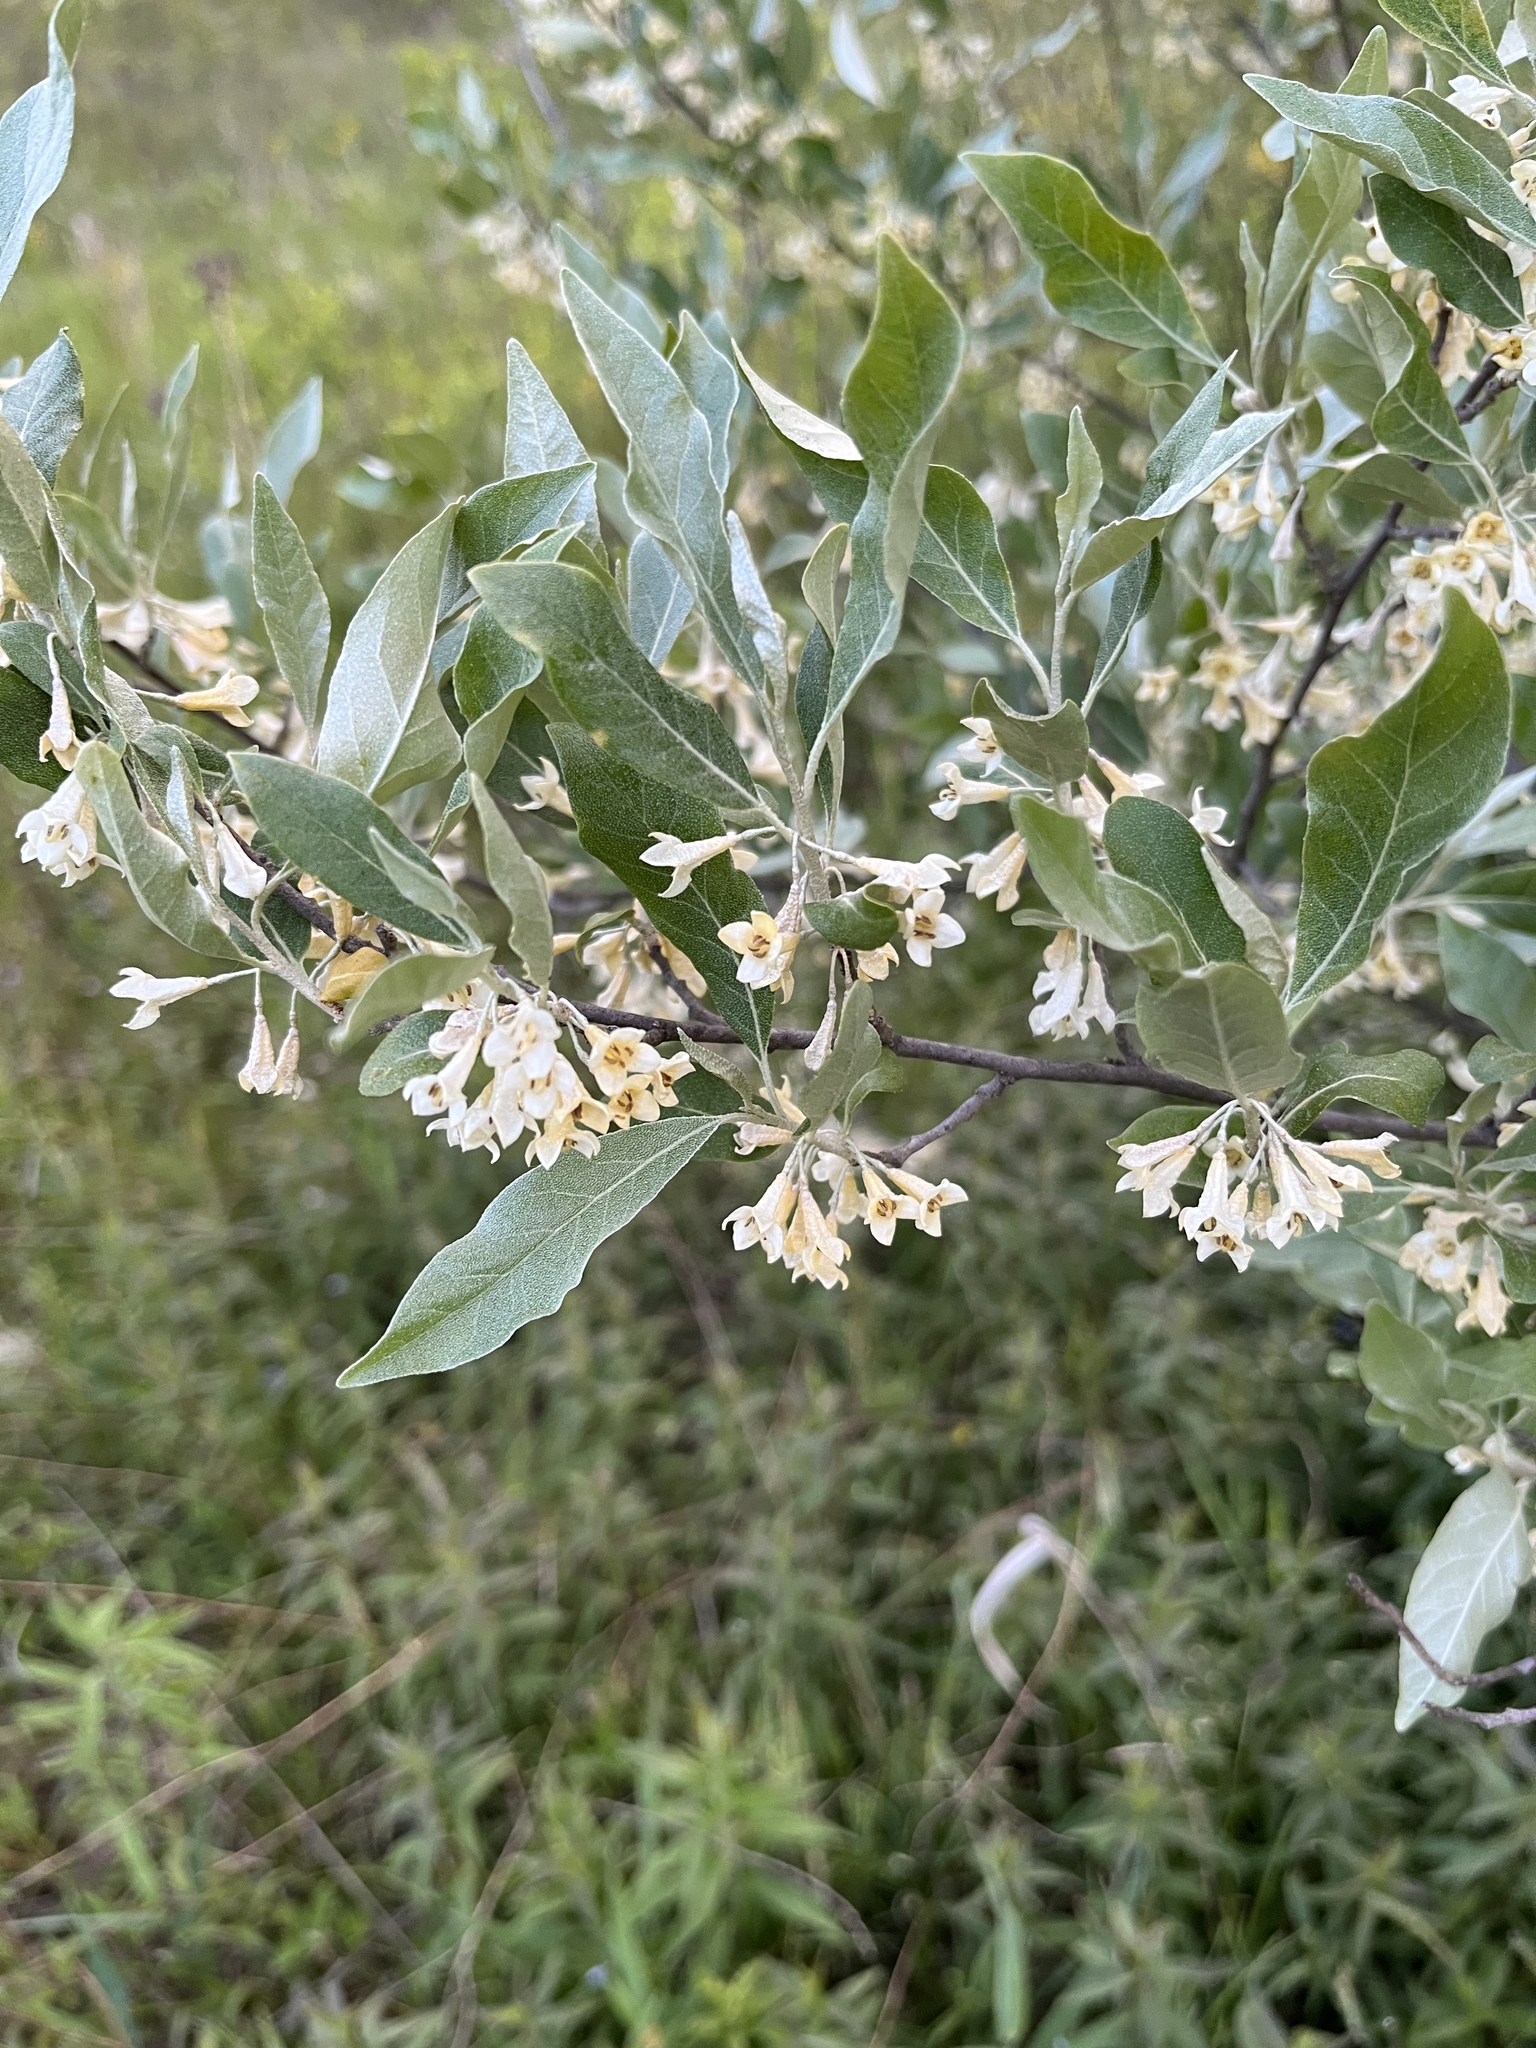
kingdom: Plantae
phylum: Tracheophyta
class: Magnoliopsida
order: Rosales
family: Elaeagnaceae
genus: Elaeagnus
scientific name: Elaeagnus umbellata
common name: Autumn olive
